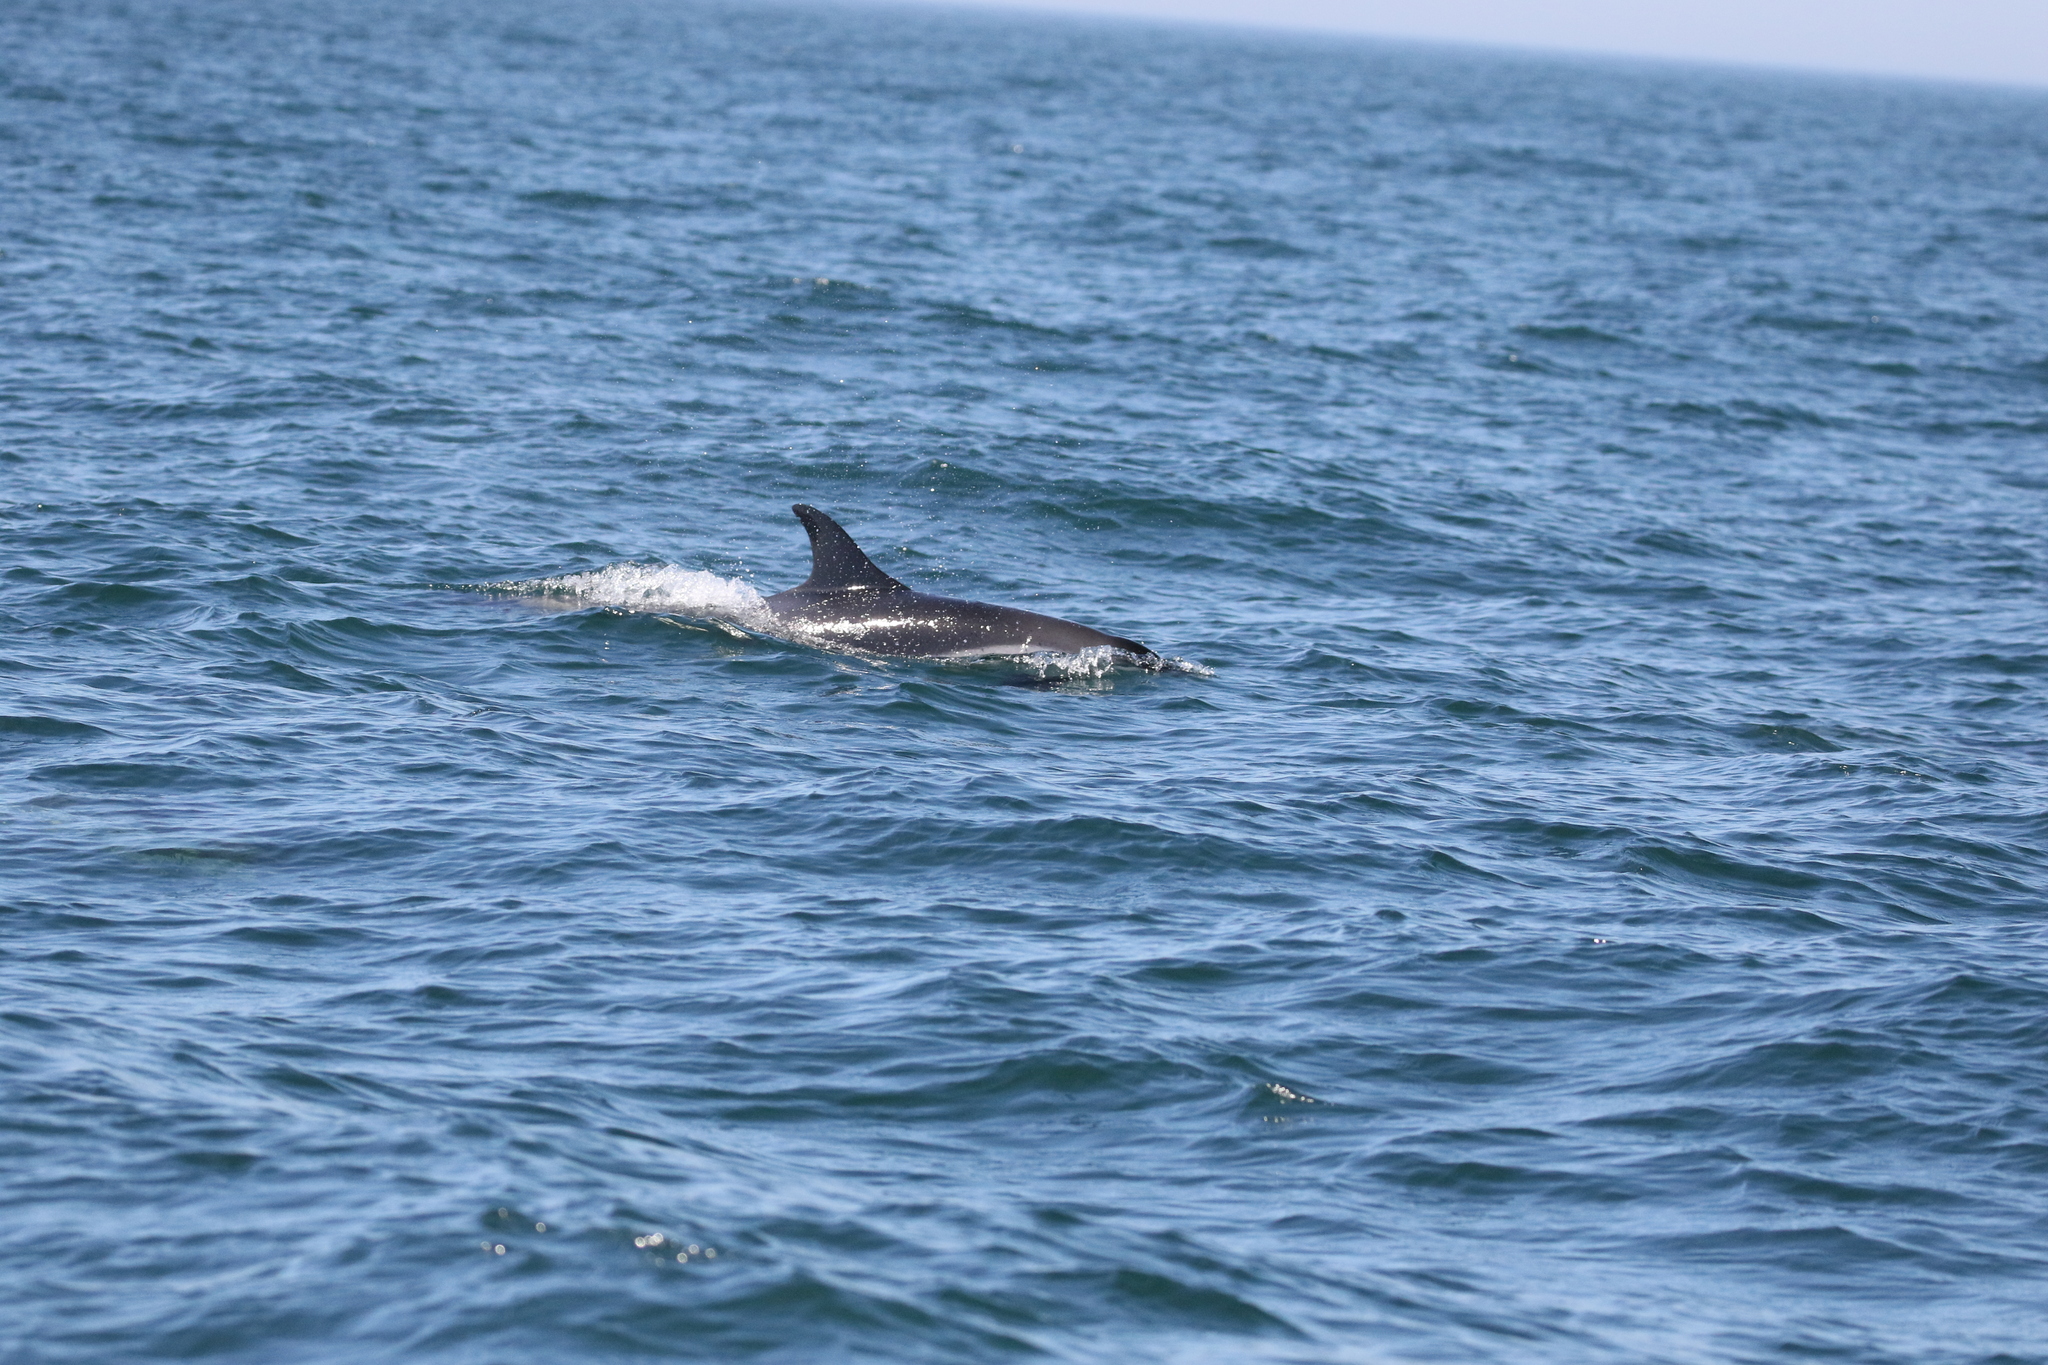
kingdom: Animalia
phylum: Chordata
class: Mammalia
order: Cetacea
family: Delphinidae
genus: Lagenorhynchus
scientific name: Lagenorhynchus acutus
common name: Atlantic white-sided dolphin
